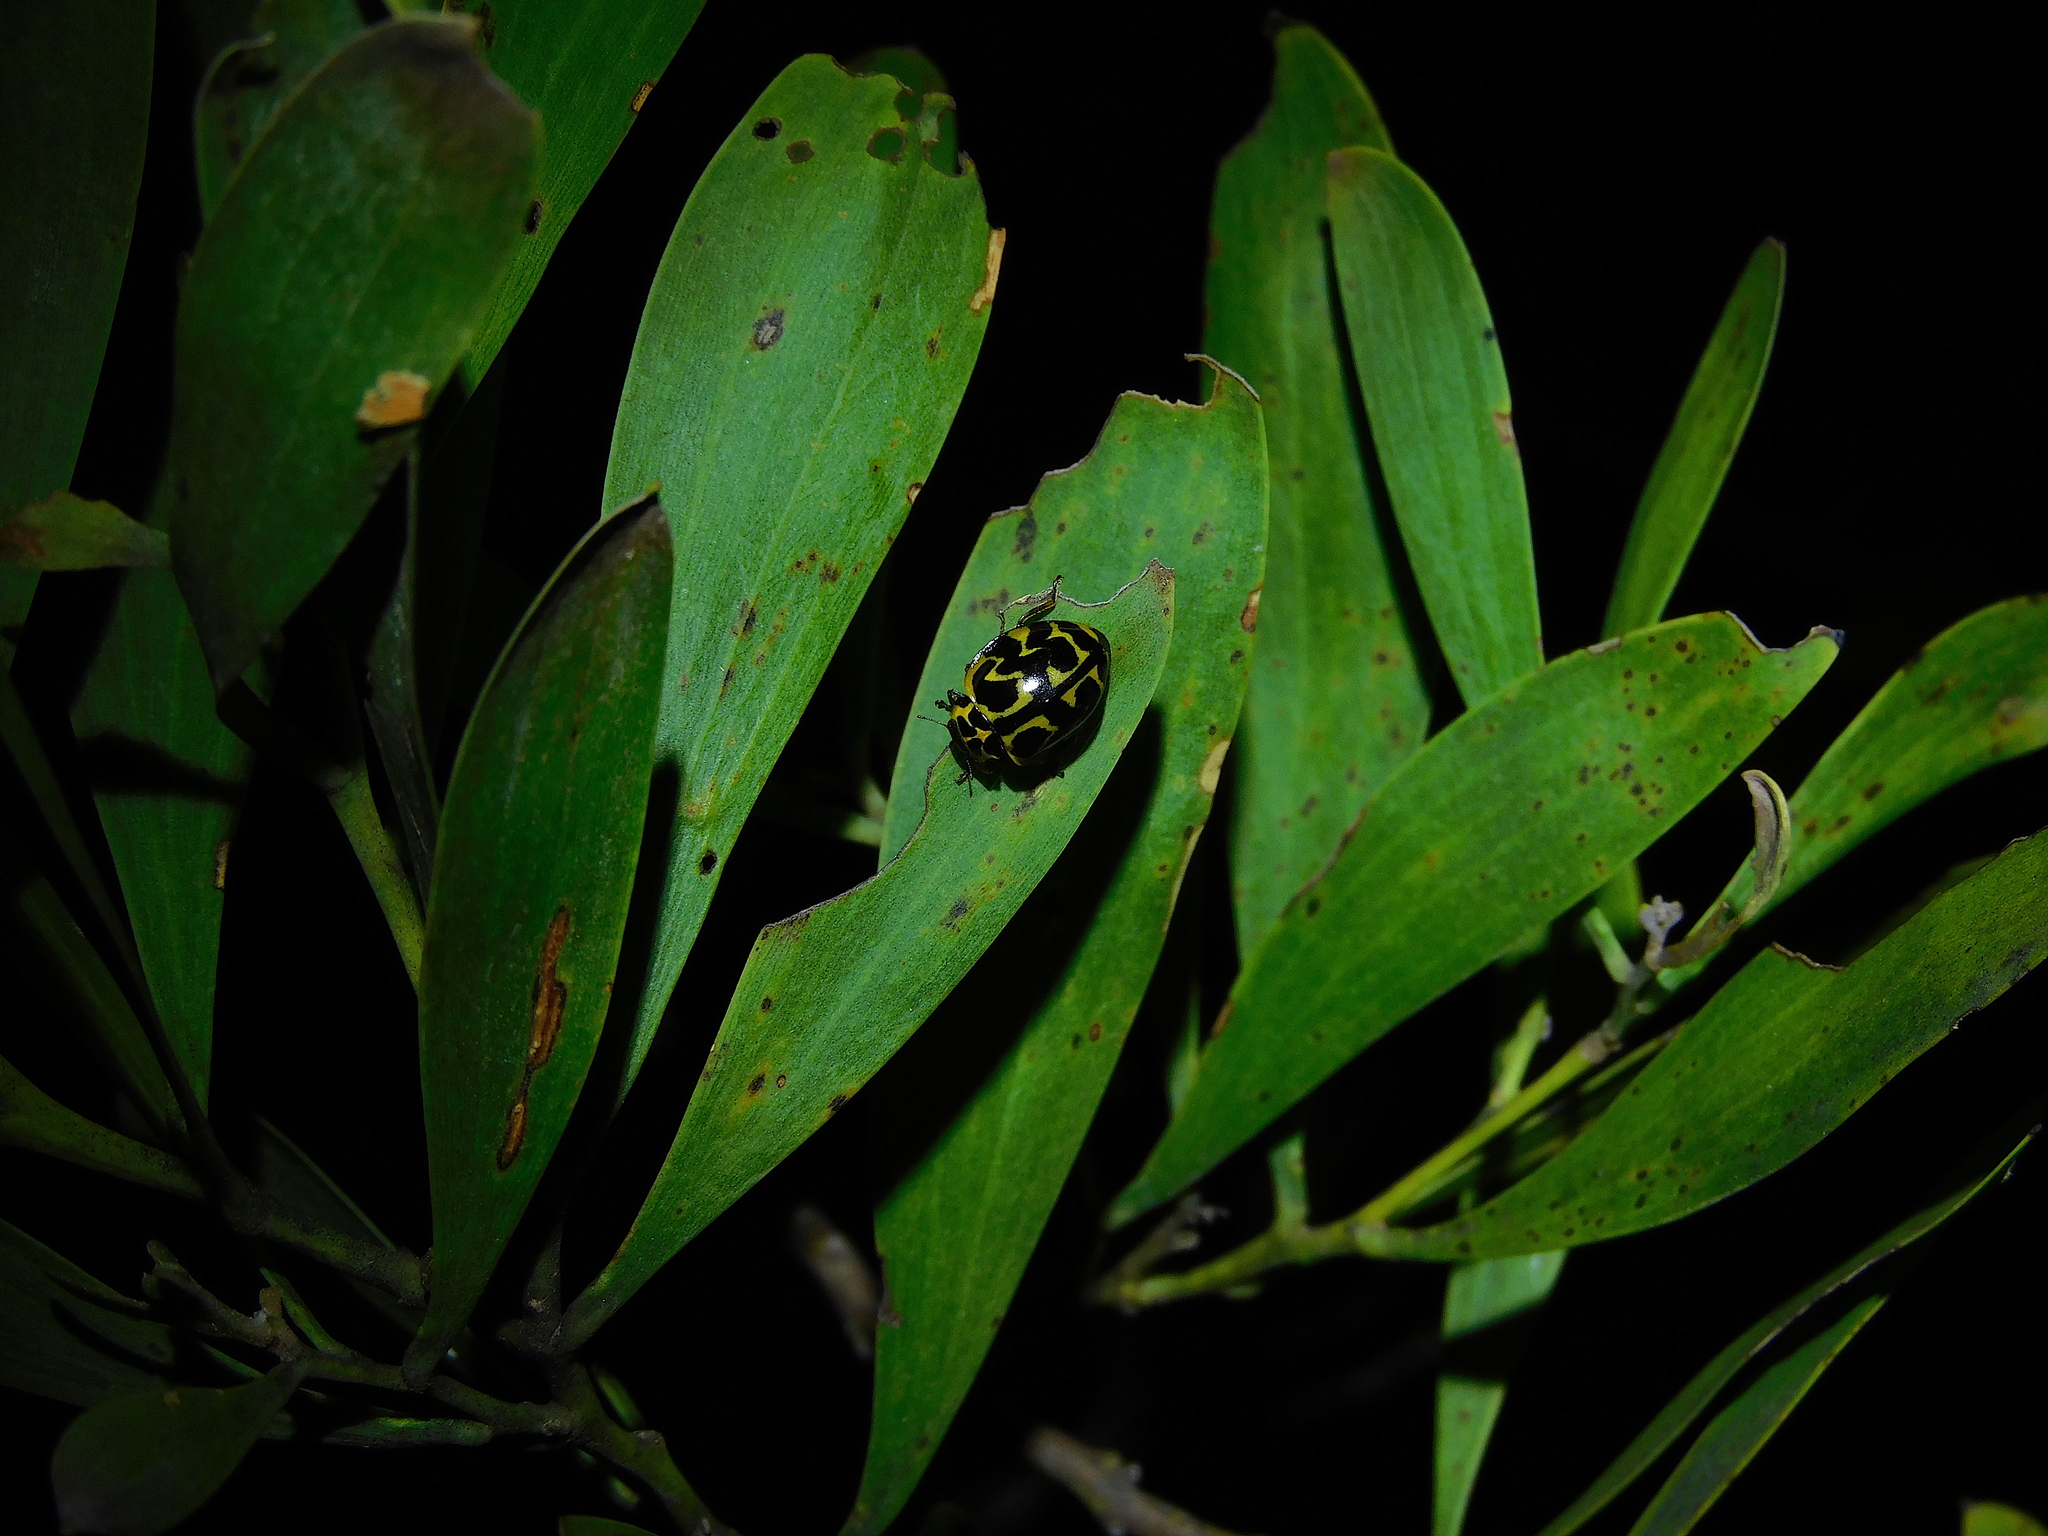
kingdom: Animalia
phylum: Arthropoda
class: Insecta
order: Coleoptera
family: Coccinellidae
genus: Cleobora
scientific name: Cleobora
